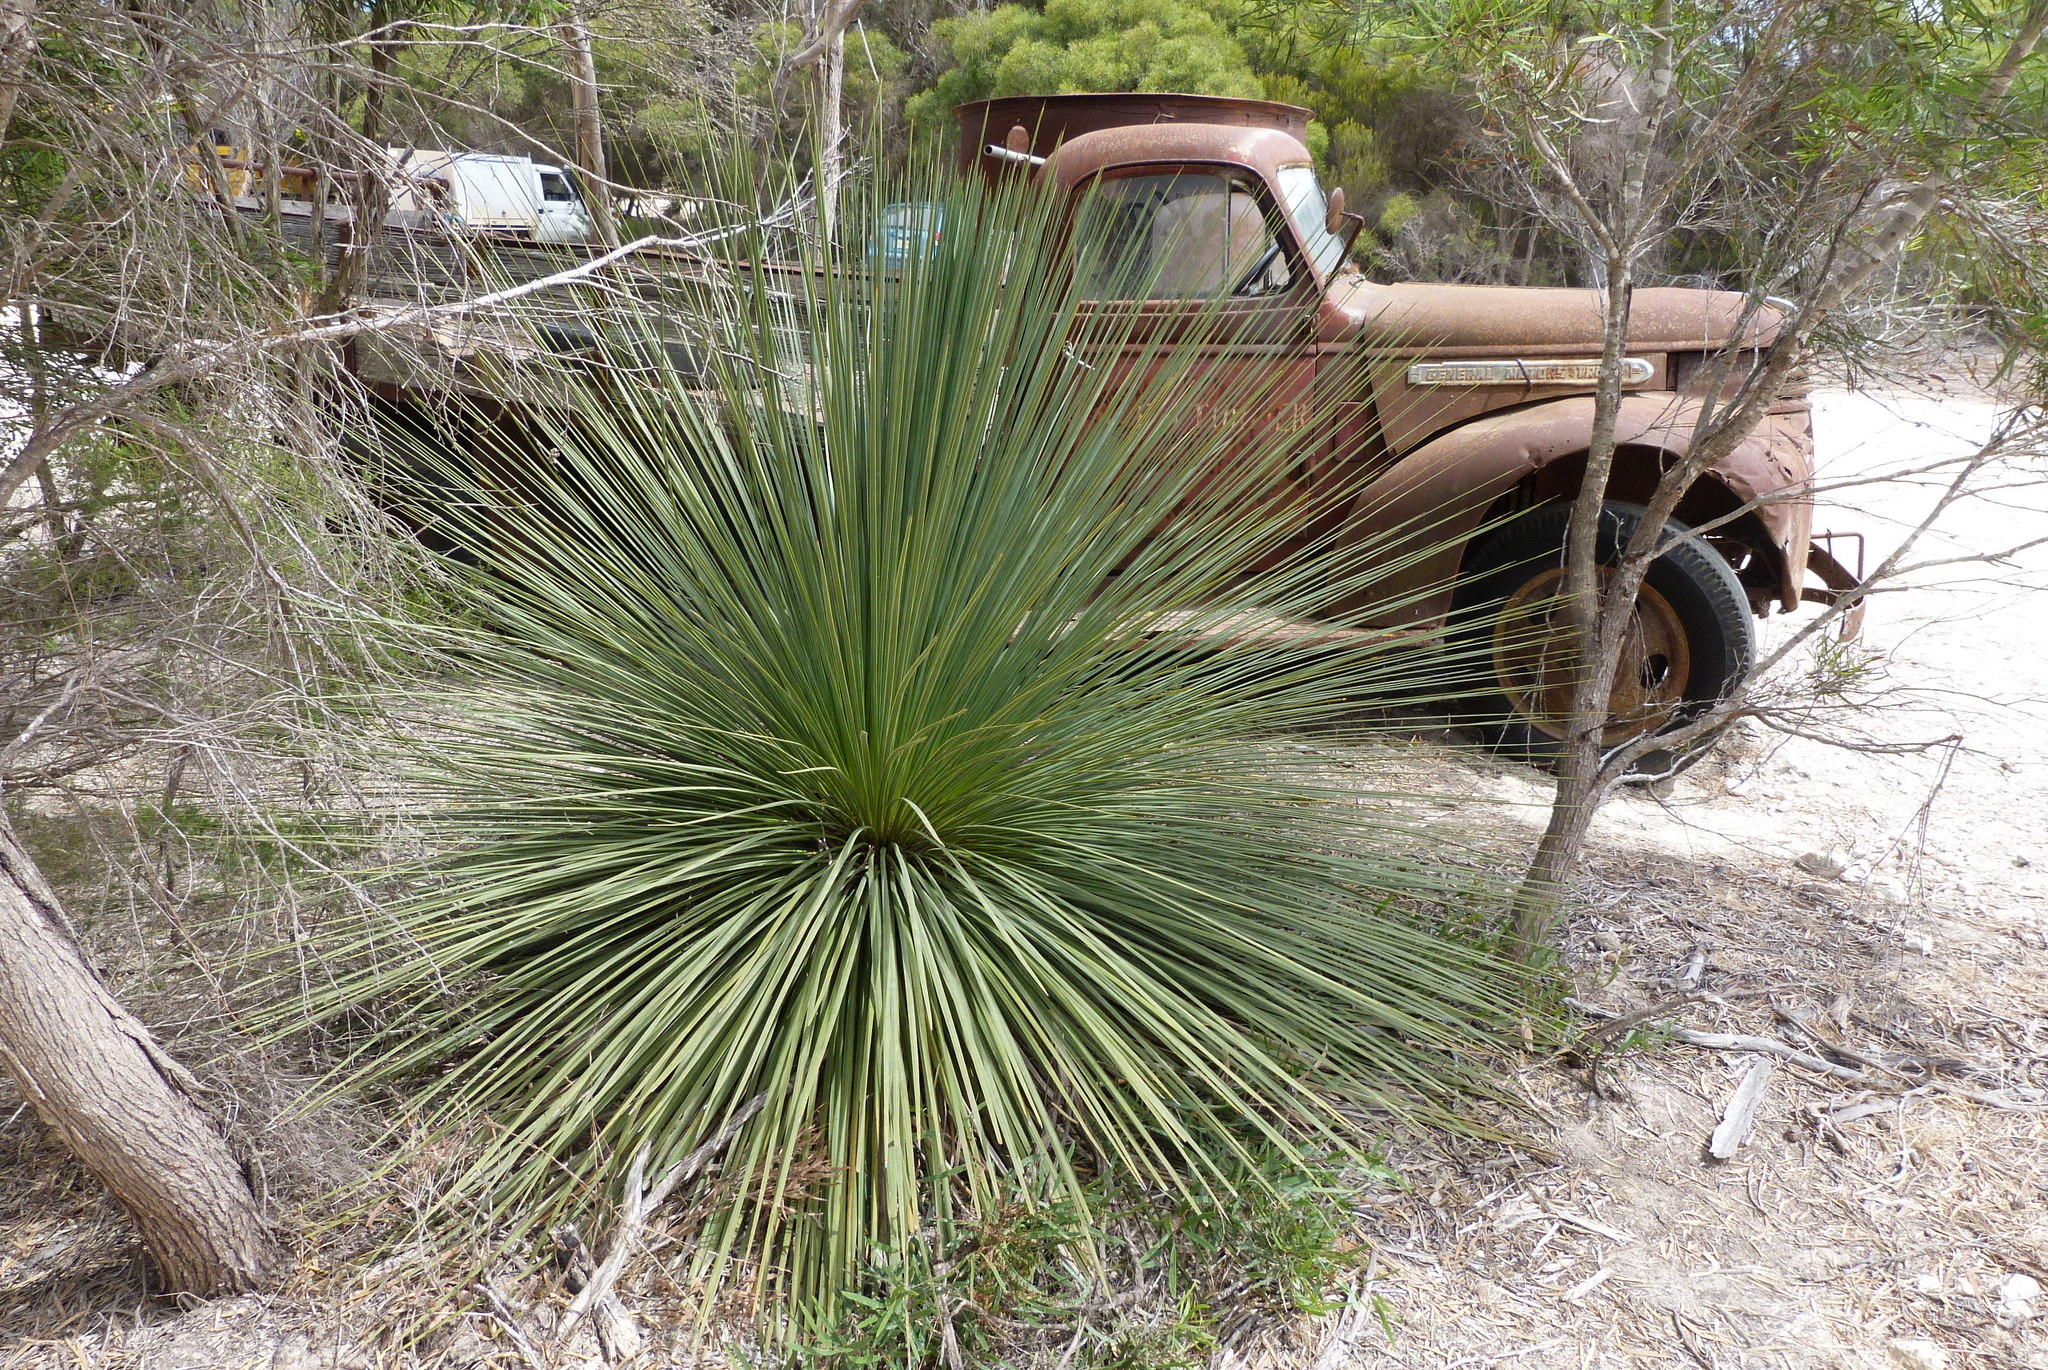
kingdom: Plantae
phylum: Tracheophyta
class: Liliopsida
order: Asparagales
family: Asphodelaceae
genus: Xanthorrhoea
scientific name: Xanthorrhoea semiplana
